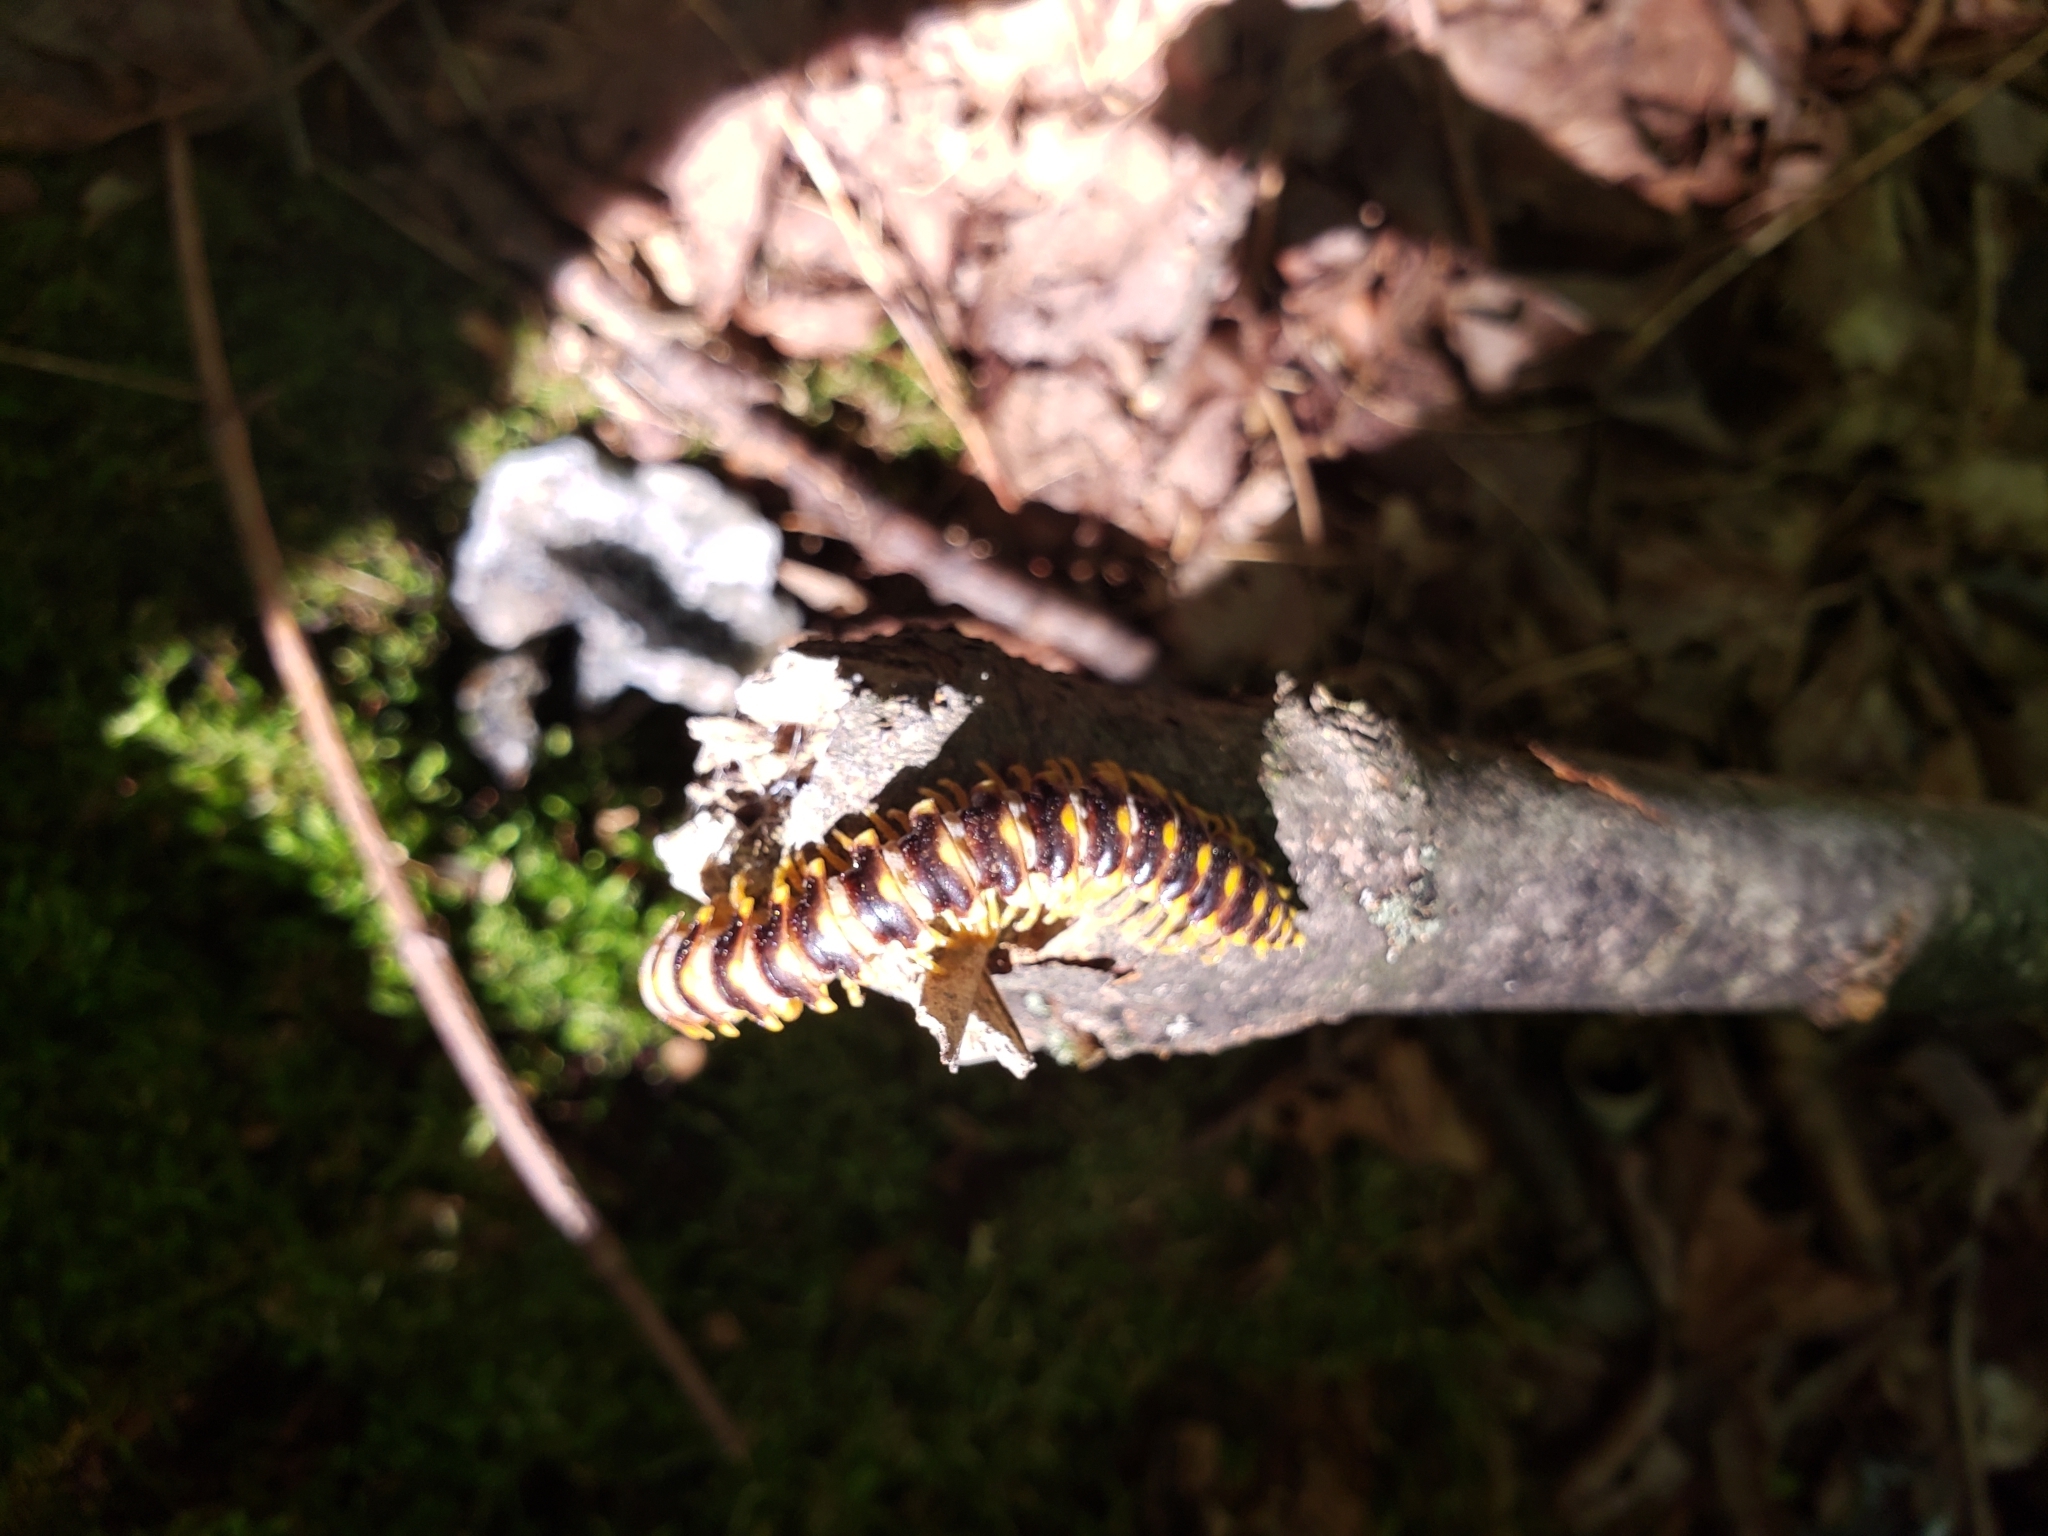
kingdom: Animalia
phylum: Arthropoda
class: Diplopoda
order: Polydesmida
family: Xystodesmidae
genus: Rudiloria
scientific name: Rudiloria trimaculata
